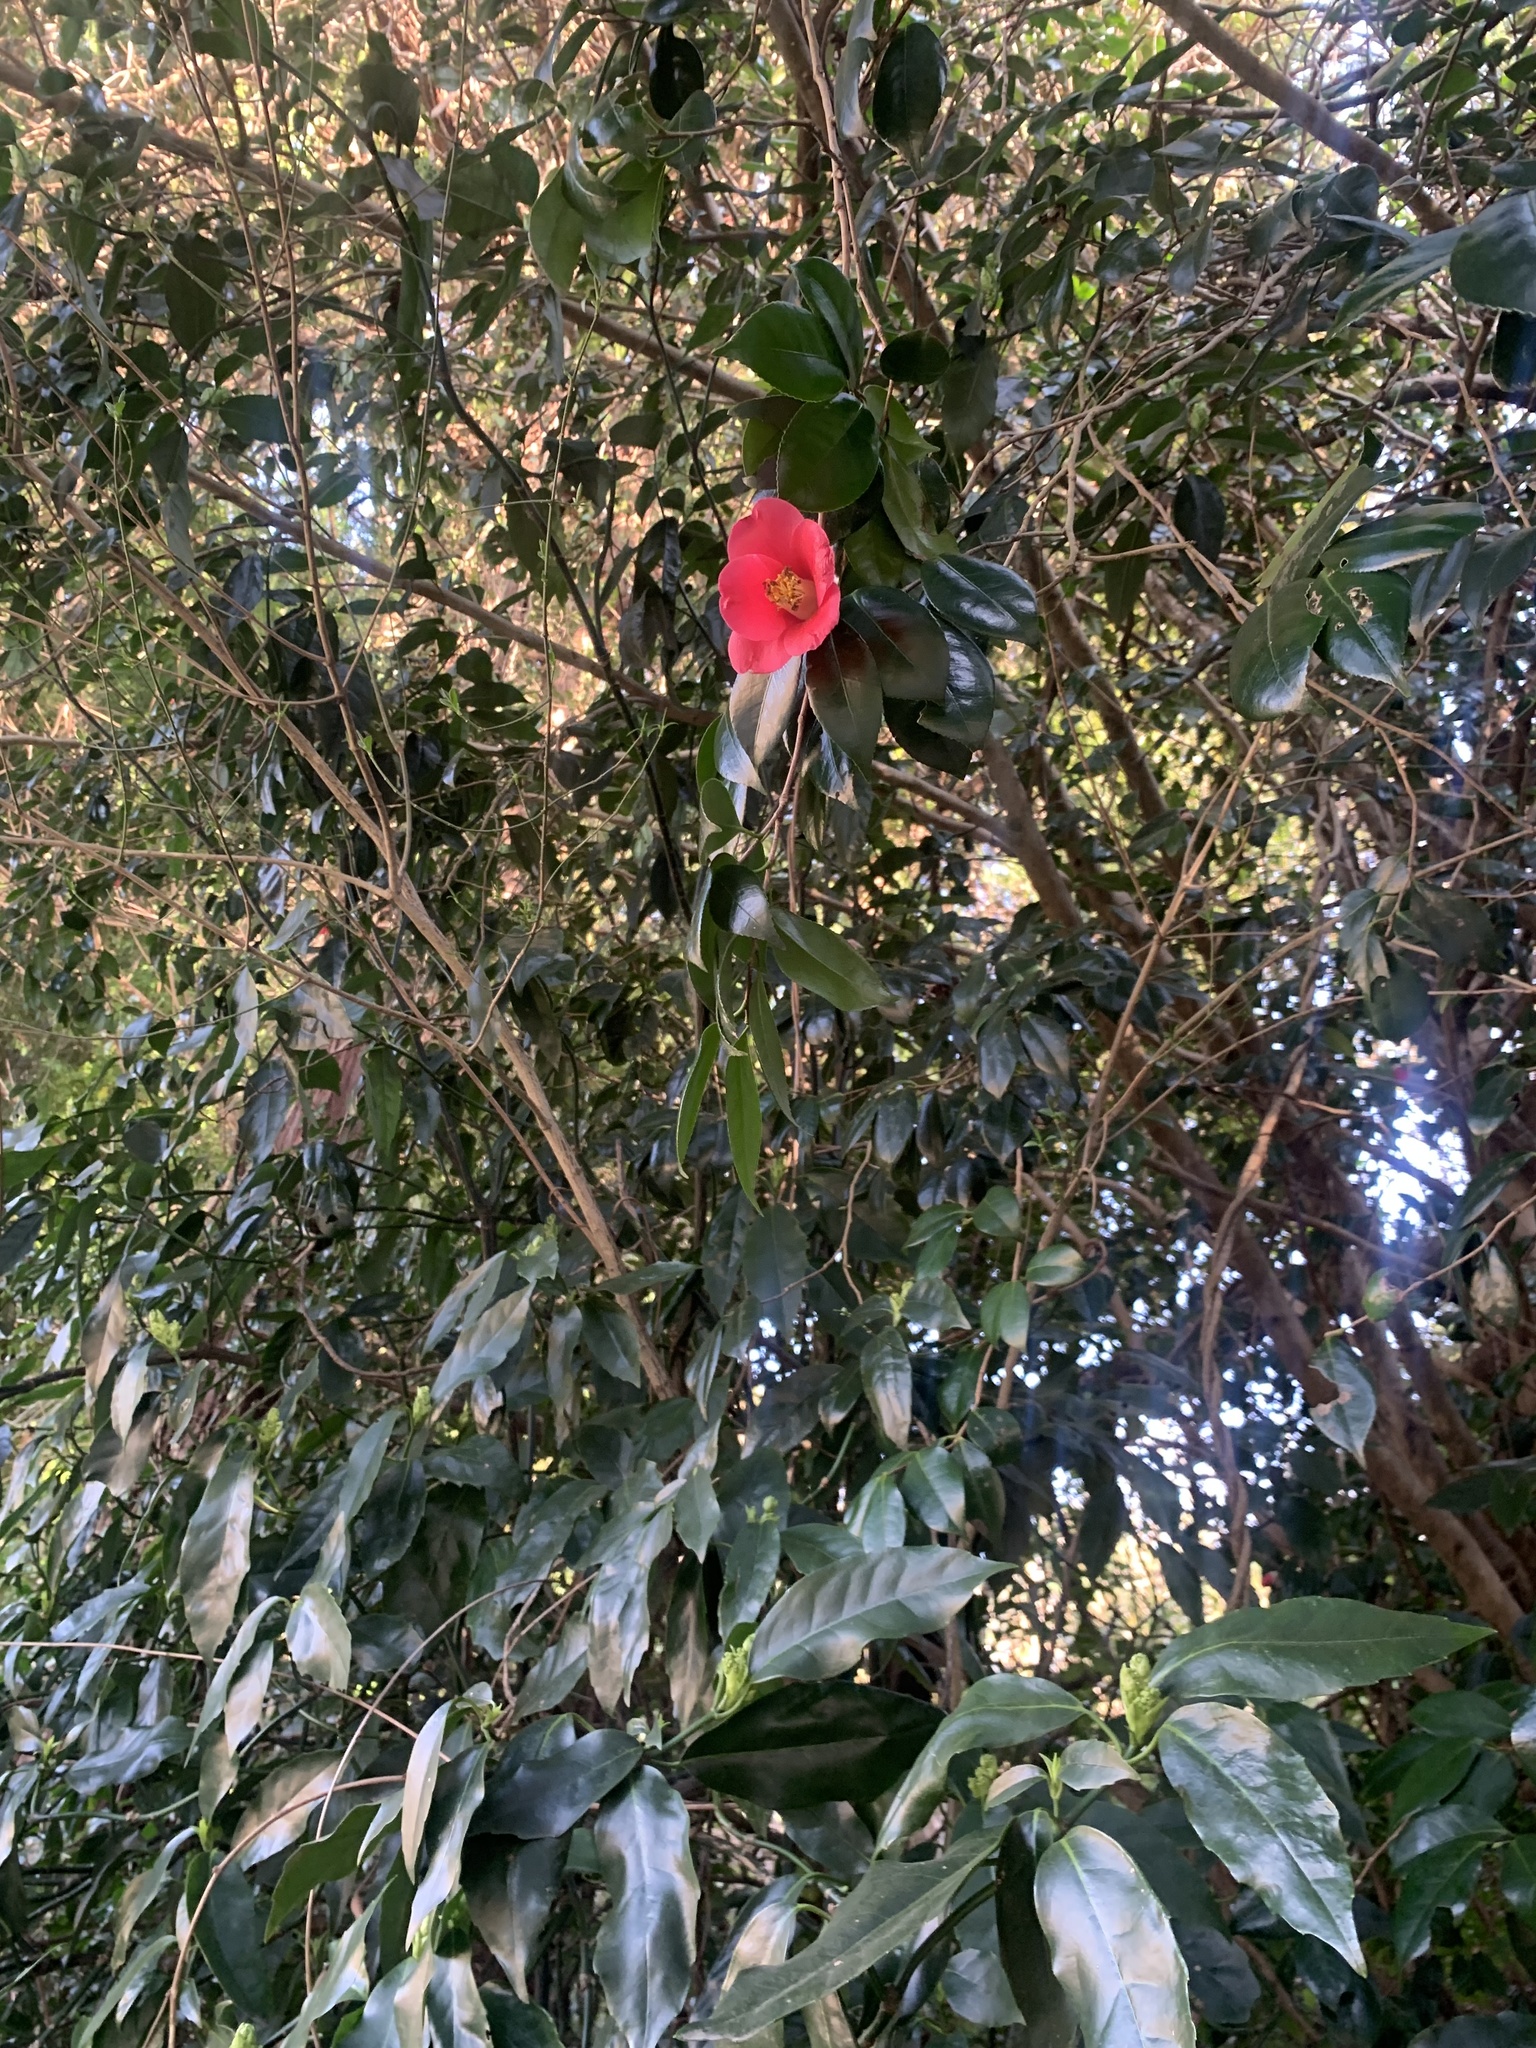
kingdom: Plantae
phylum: Tracheophyta
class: Magnoliopsida
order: Ericales
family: Theaceae
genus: Camellia
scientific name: Camellia japonica
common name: Camellia
